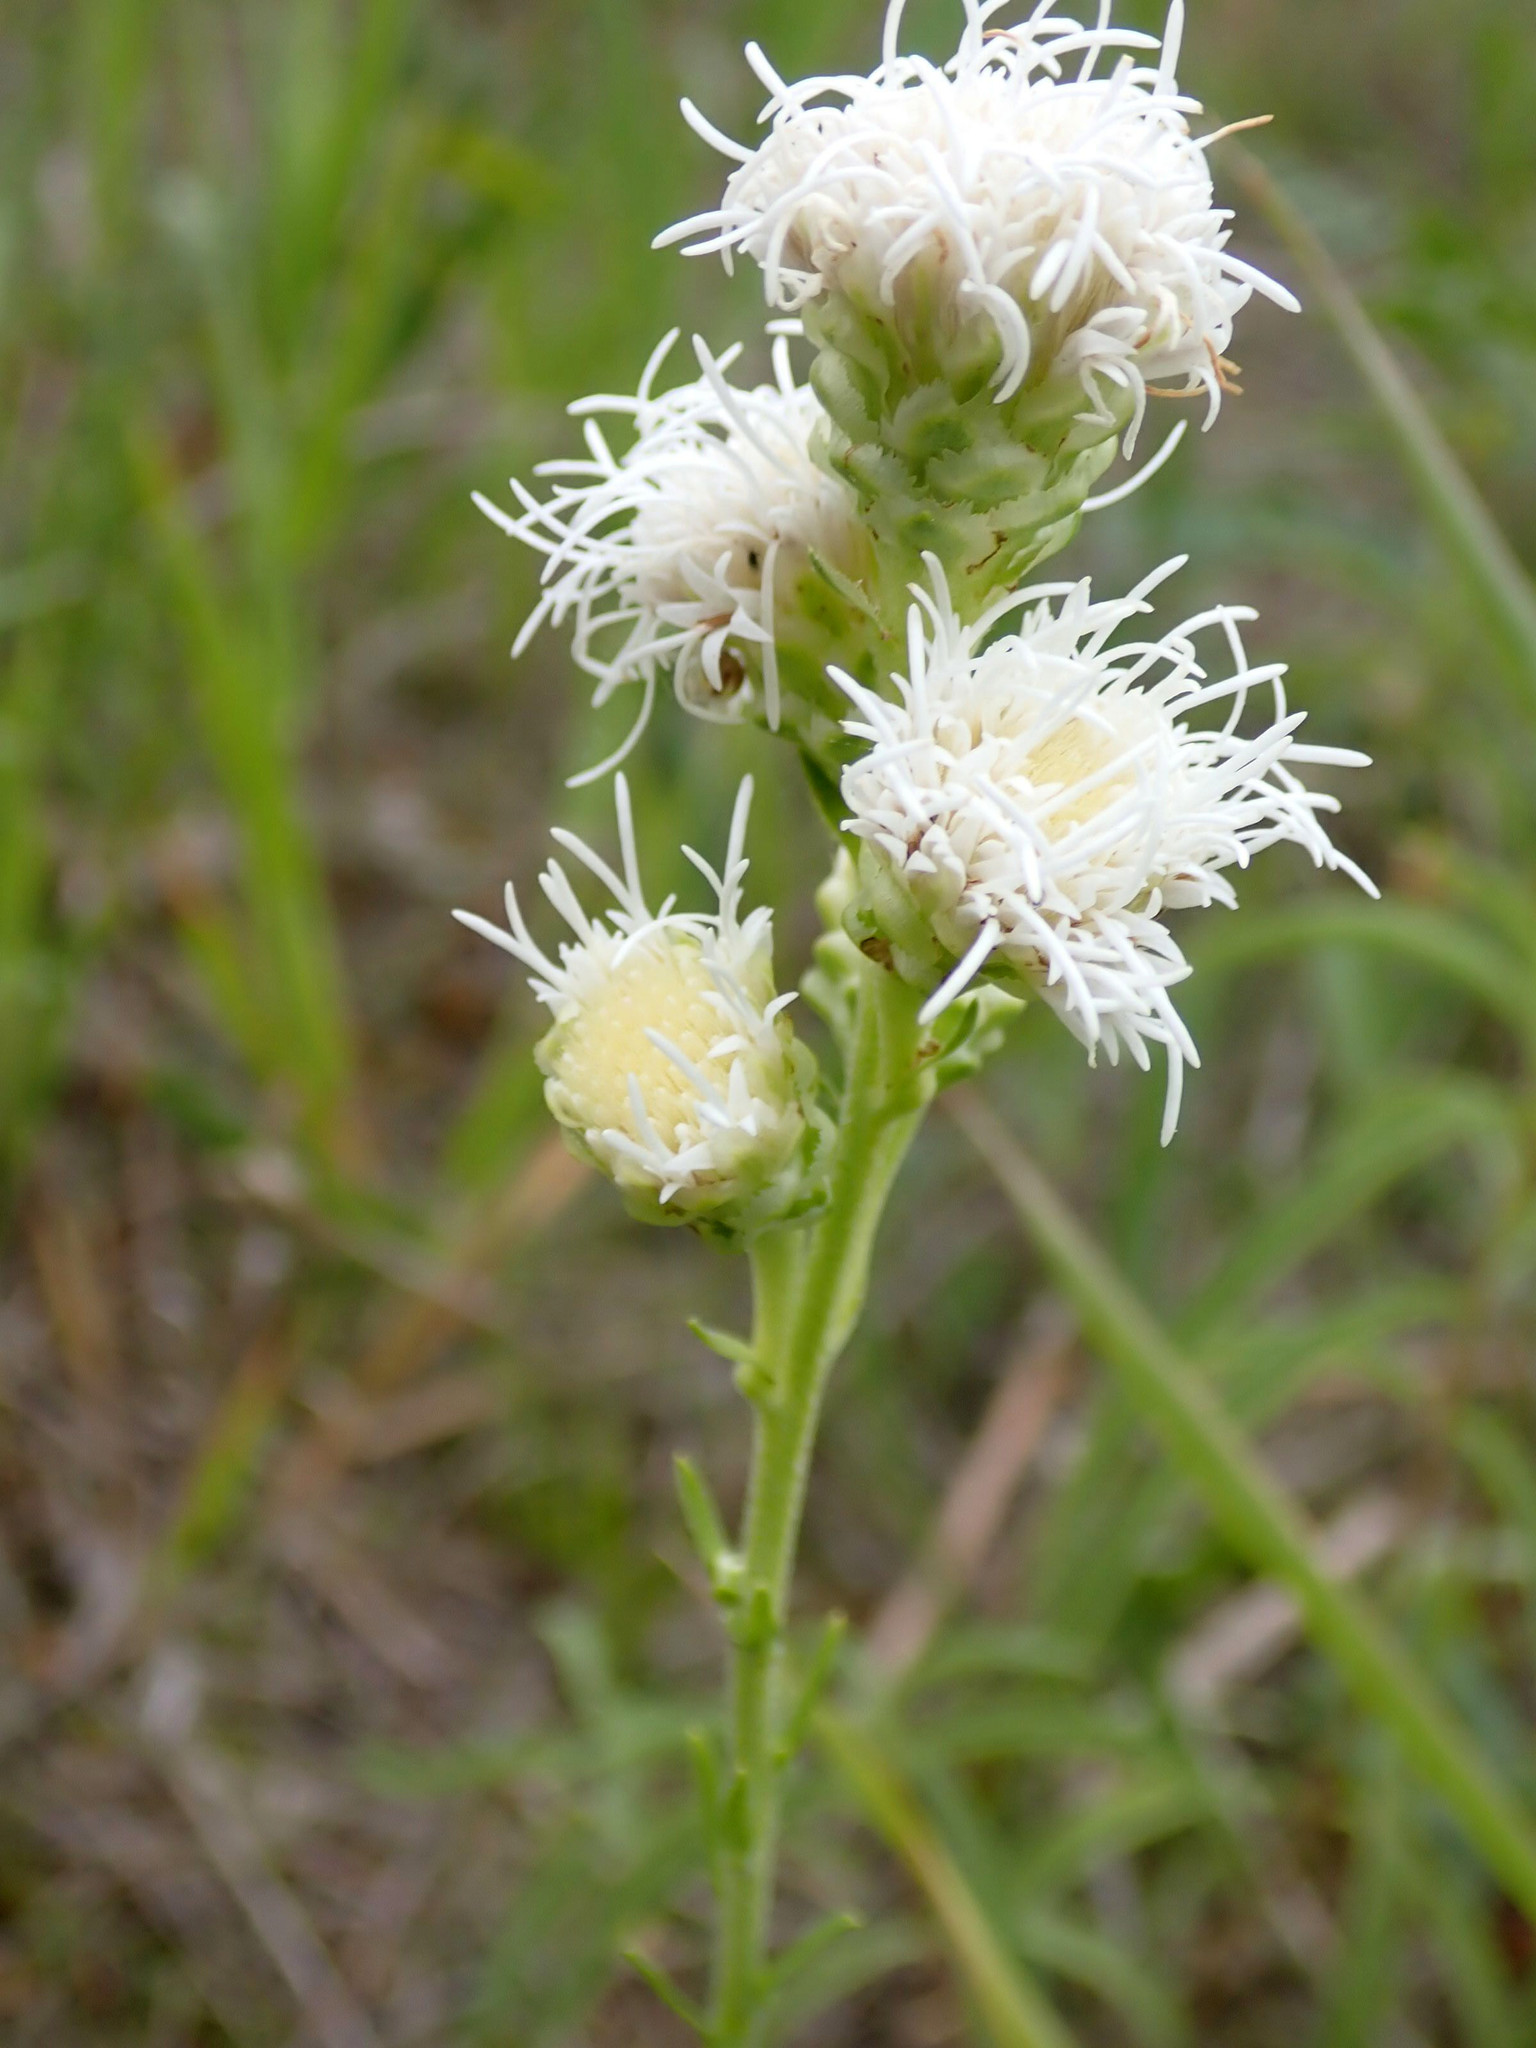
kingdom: Plantae
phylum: Tracheophyta
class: Magnoliopsida
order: Asterales
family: Asteraceae
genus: Liatris
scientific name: Liatris ligulistylis
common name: Northern plains gayfeather
